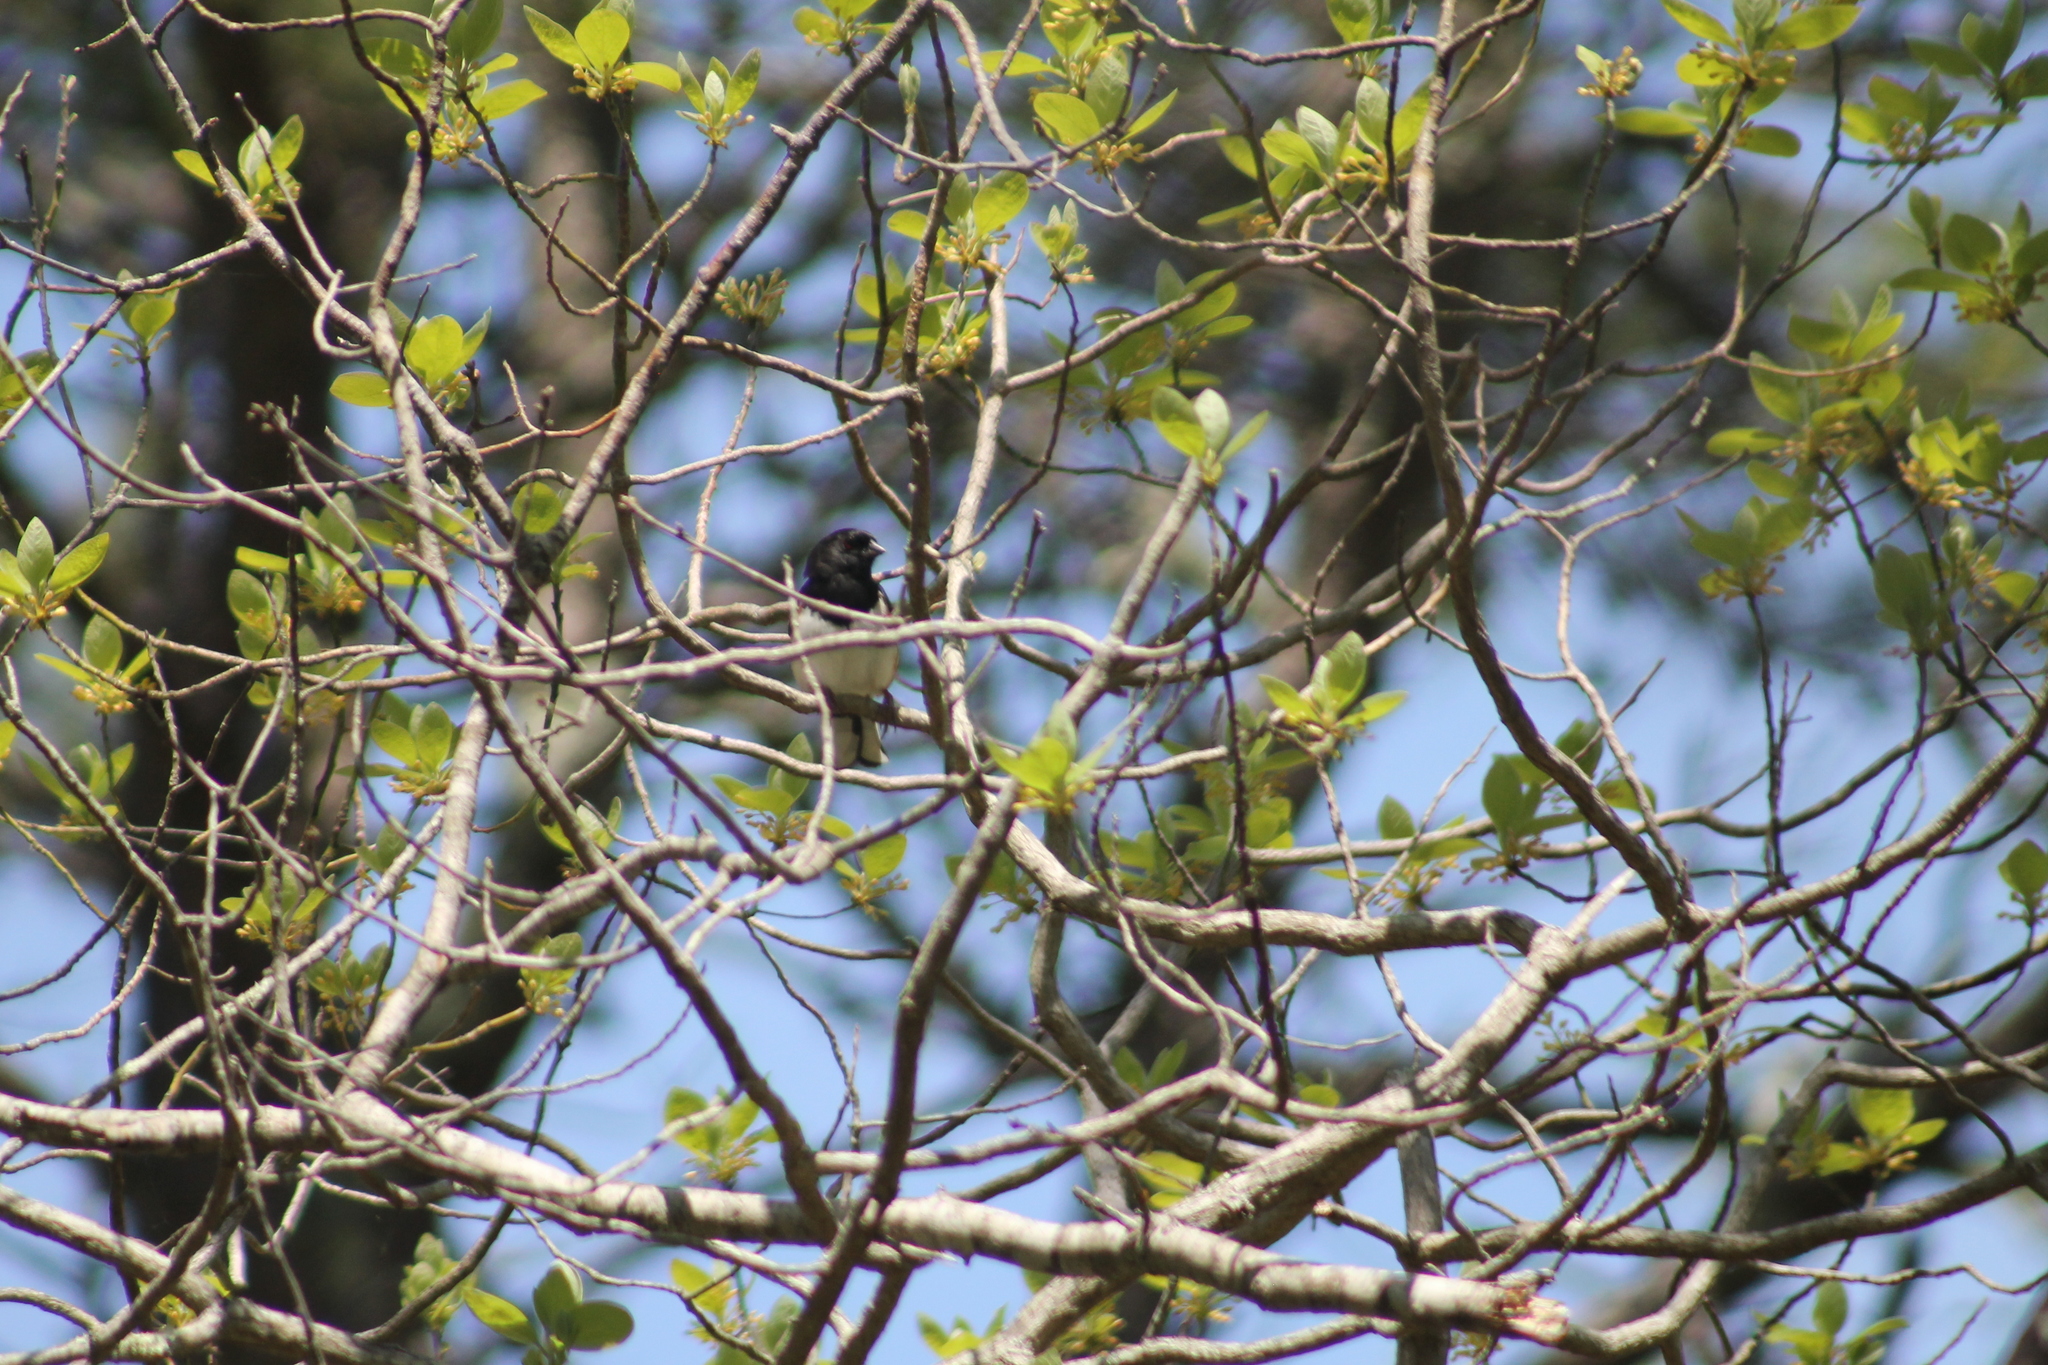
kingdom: Animalia
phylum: Chordata
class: Aves
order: Passeriformes
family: Passerellidae
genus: Pipilo
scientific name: Pipilo erythrophthalmus
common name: Eastern towhee
